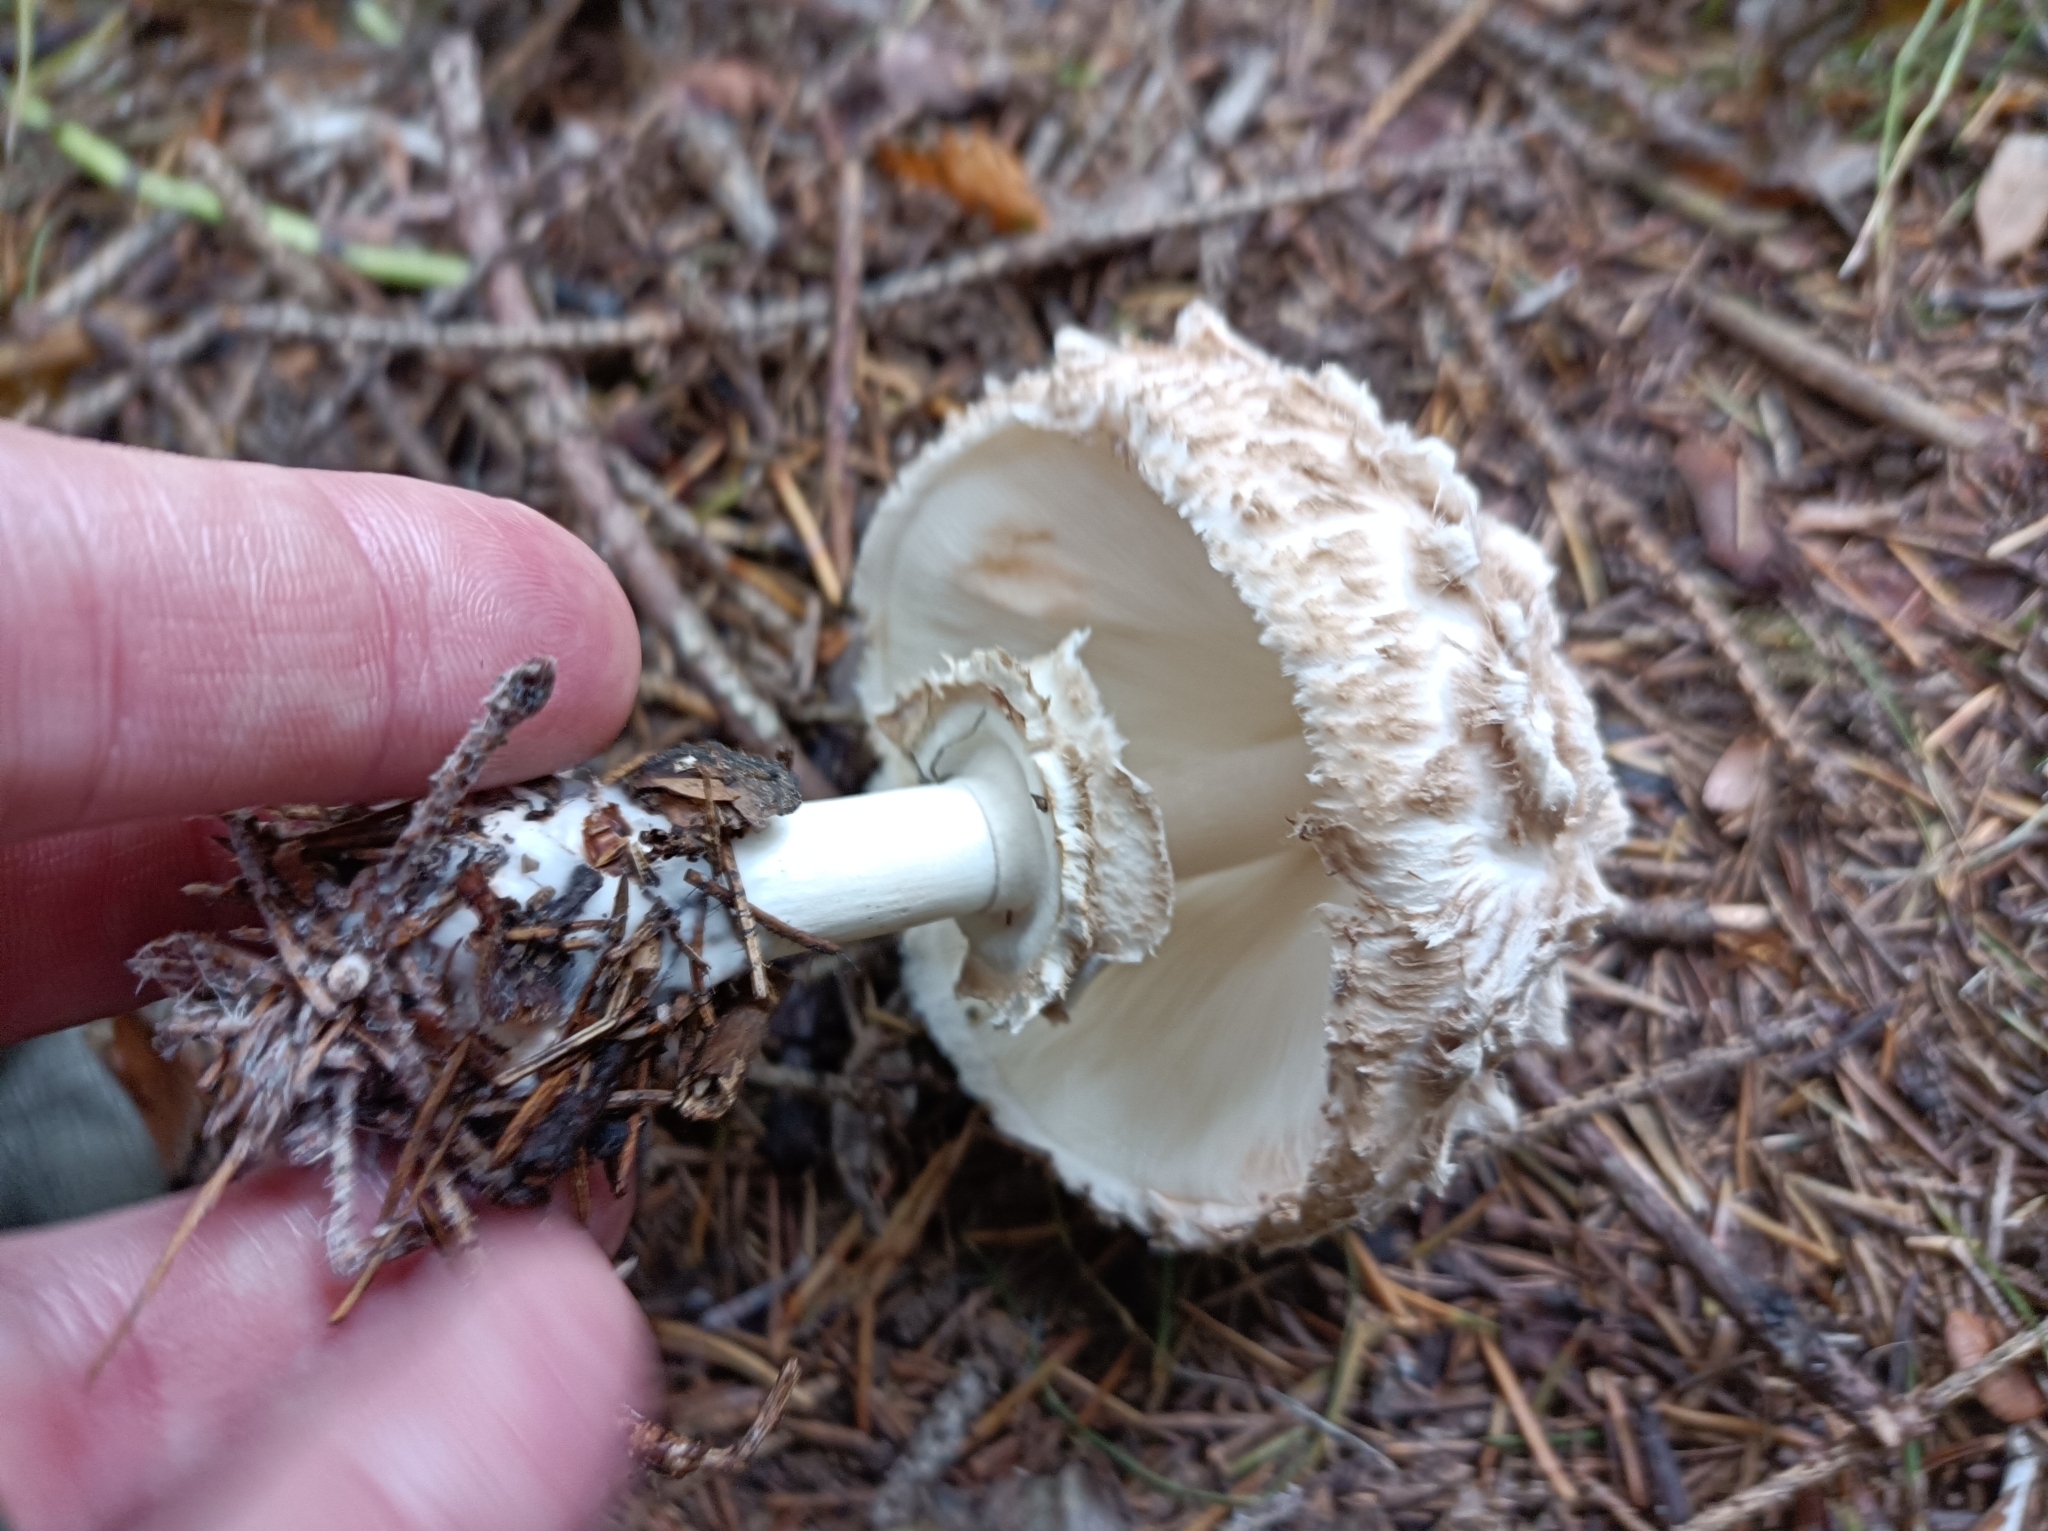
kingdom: Fungi
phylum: Basidiomycota
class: Agaricomycetes
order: Agaricales
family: Agaricaceae
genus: Chlorophyllum
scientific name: Chlorophyllum rhacodes
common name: Shaggy parasol
